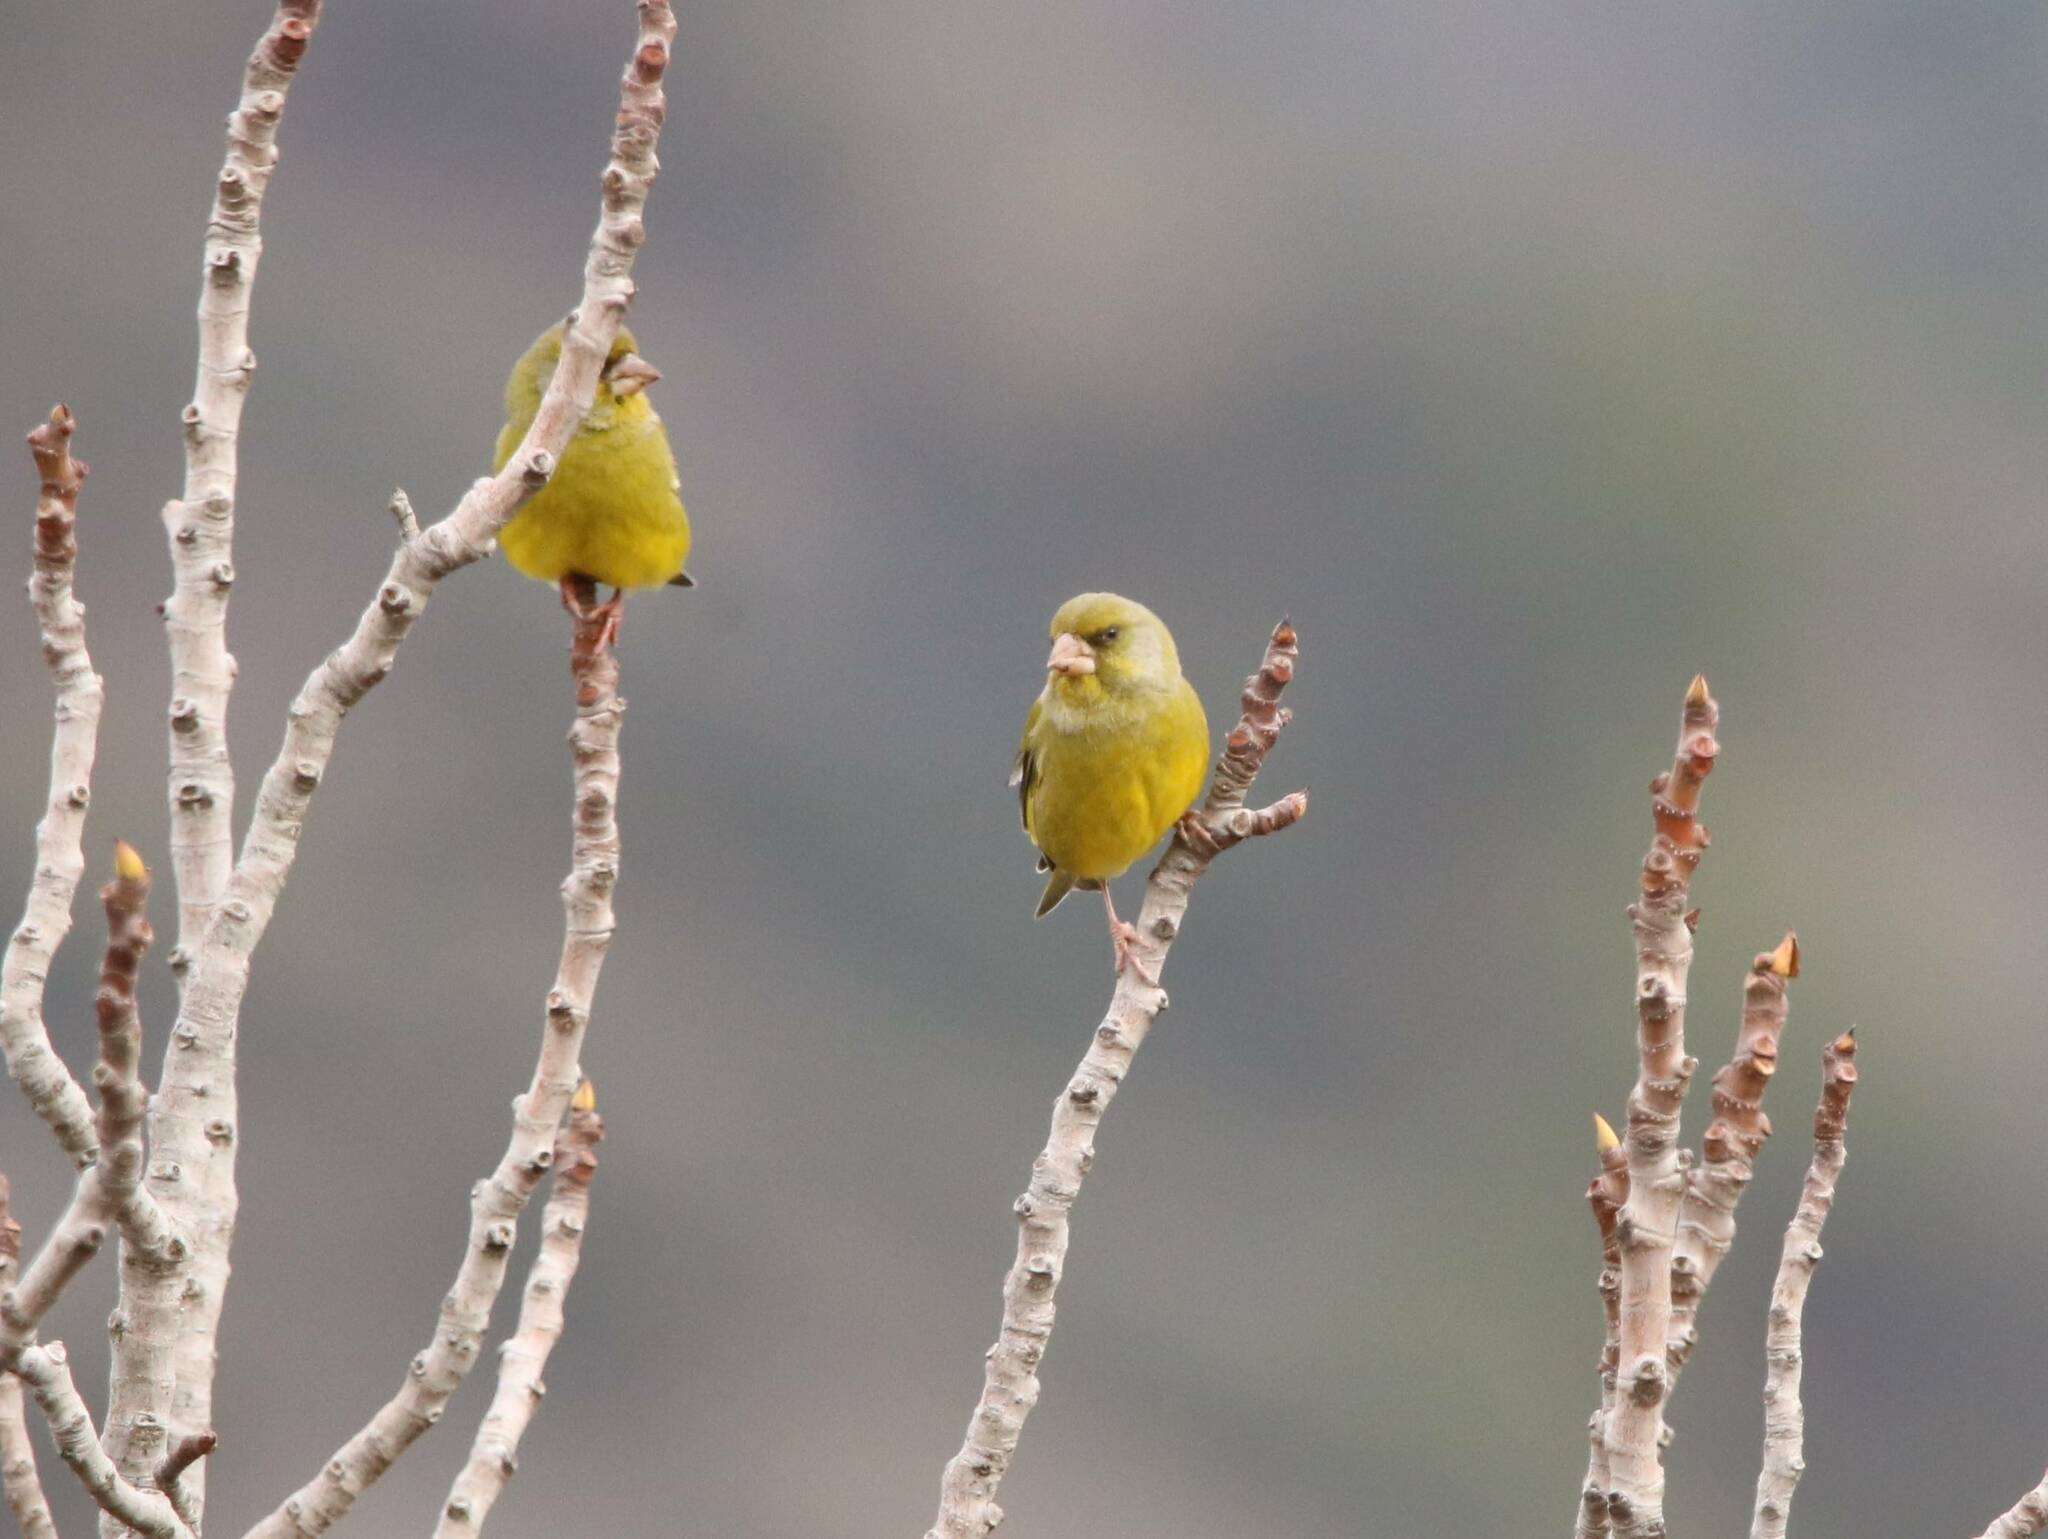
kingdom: Plantae
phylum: Tracheophyta
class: Liliopsida
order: Poales
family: Poaceae
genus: Chloris
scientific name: Chloris chloris
